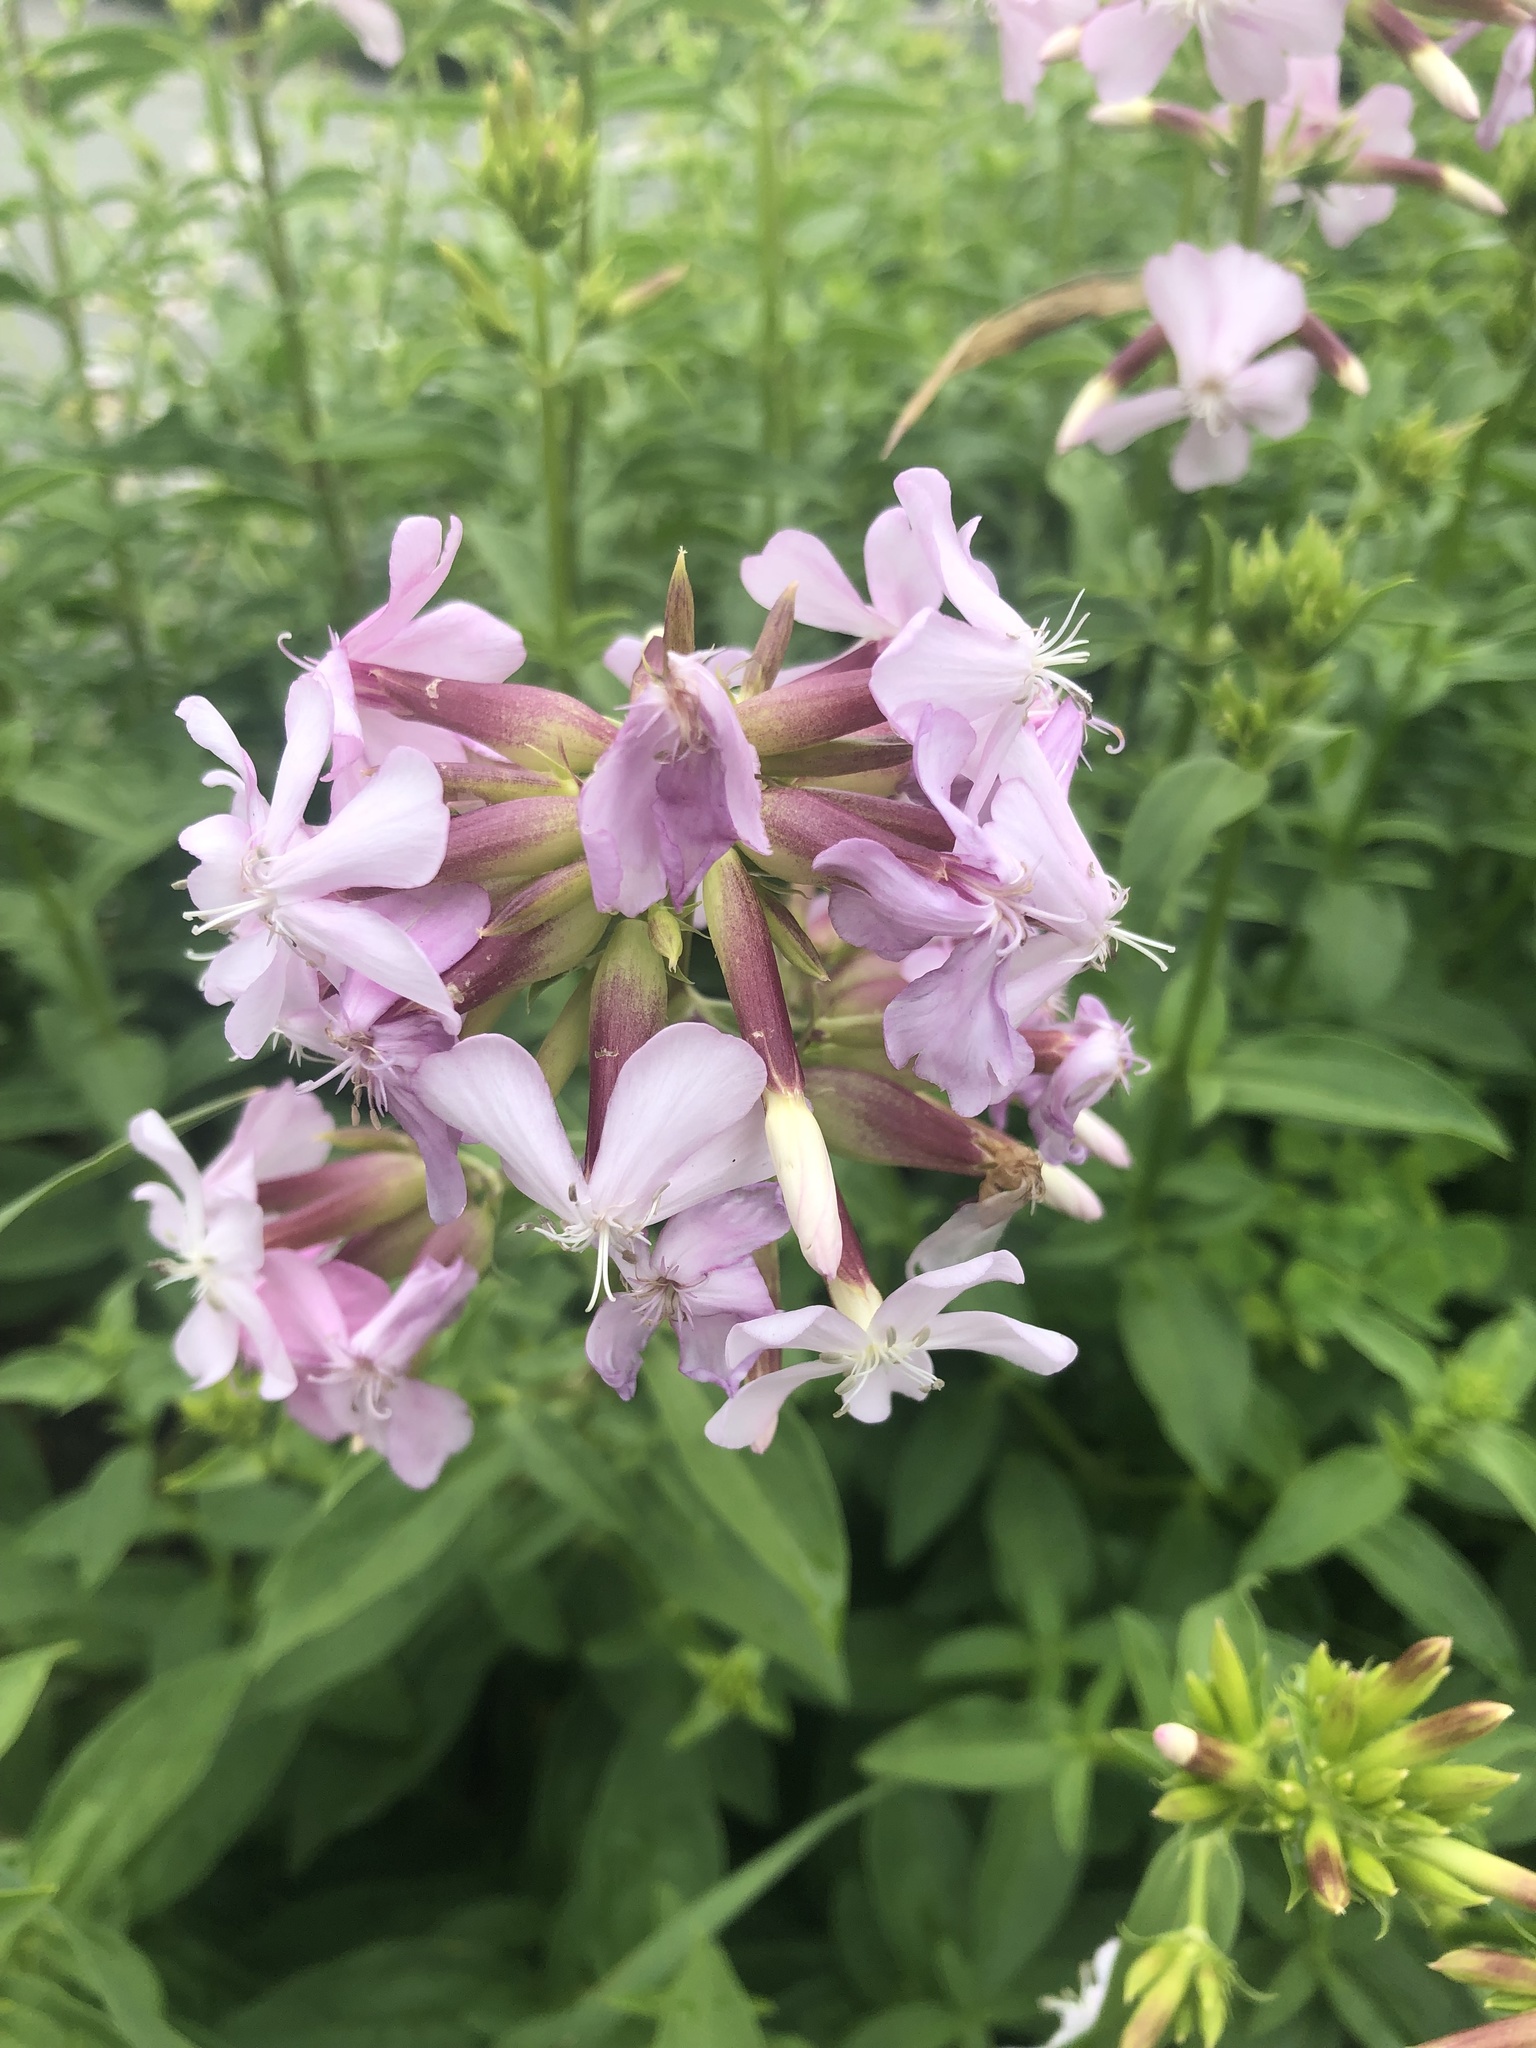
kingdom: Plantae
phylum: Tracheophyta
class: Magnoliopsida
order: Caryophyllales
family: Caryophyllaceae
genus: Saponaria
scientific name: Saponaria officinalis
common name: Soapwort
